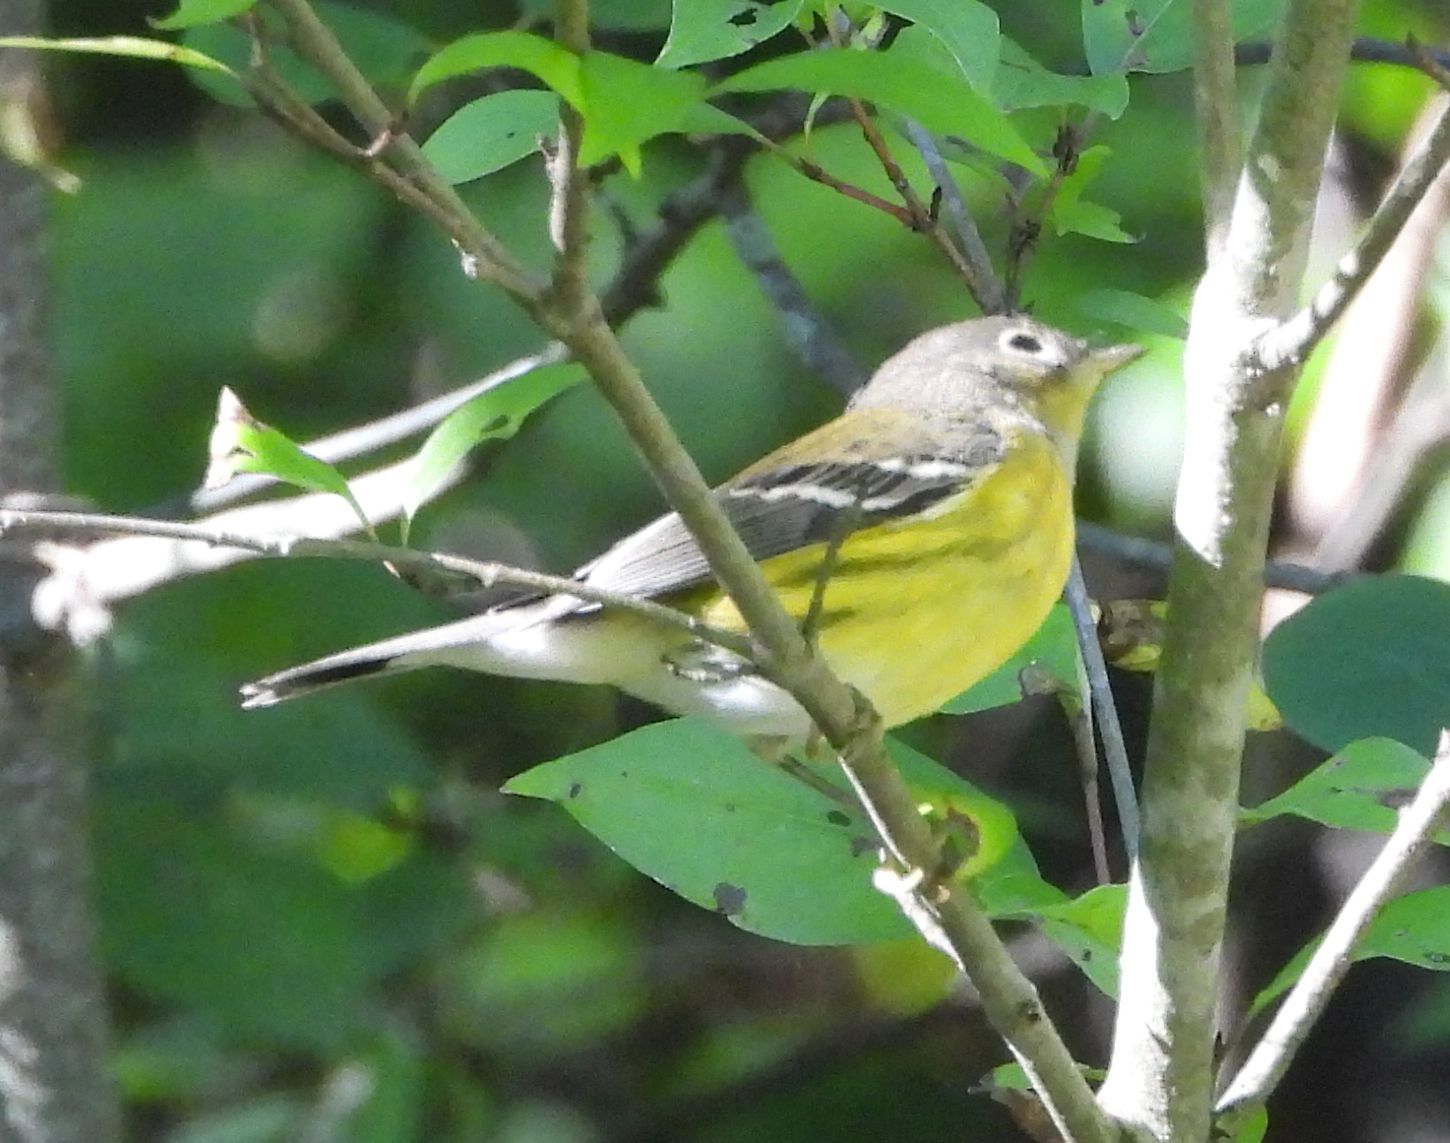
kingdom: Animalia
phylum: Chordata
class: Aves
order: Passeriformes
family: Parulidae
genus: Setophaga
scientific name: Setophaga magnolia
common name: Magnolia warbler
